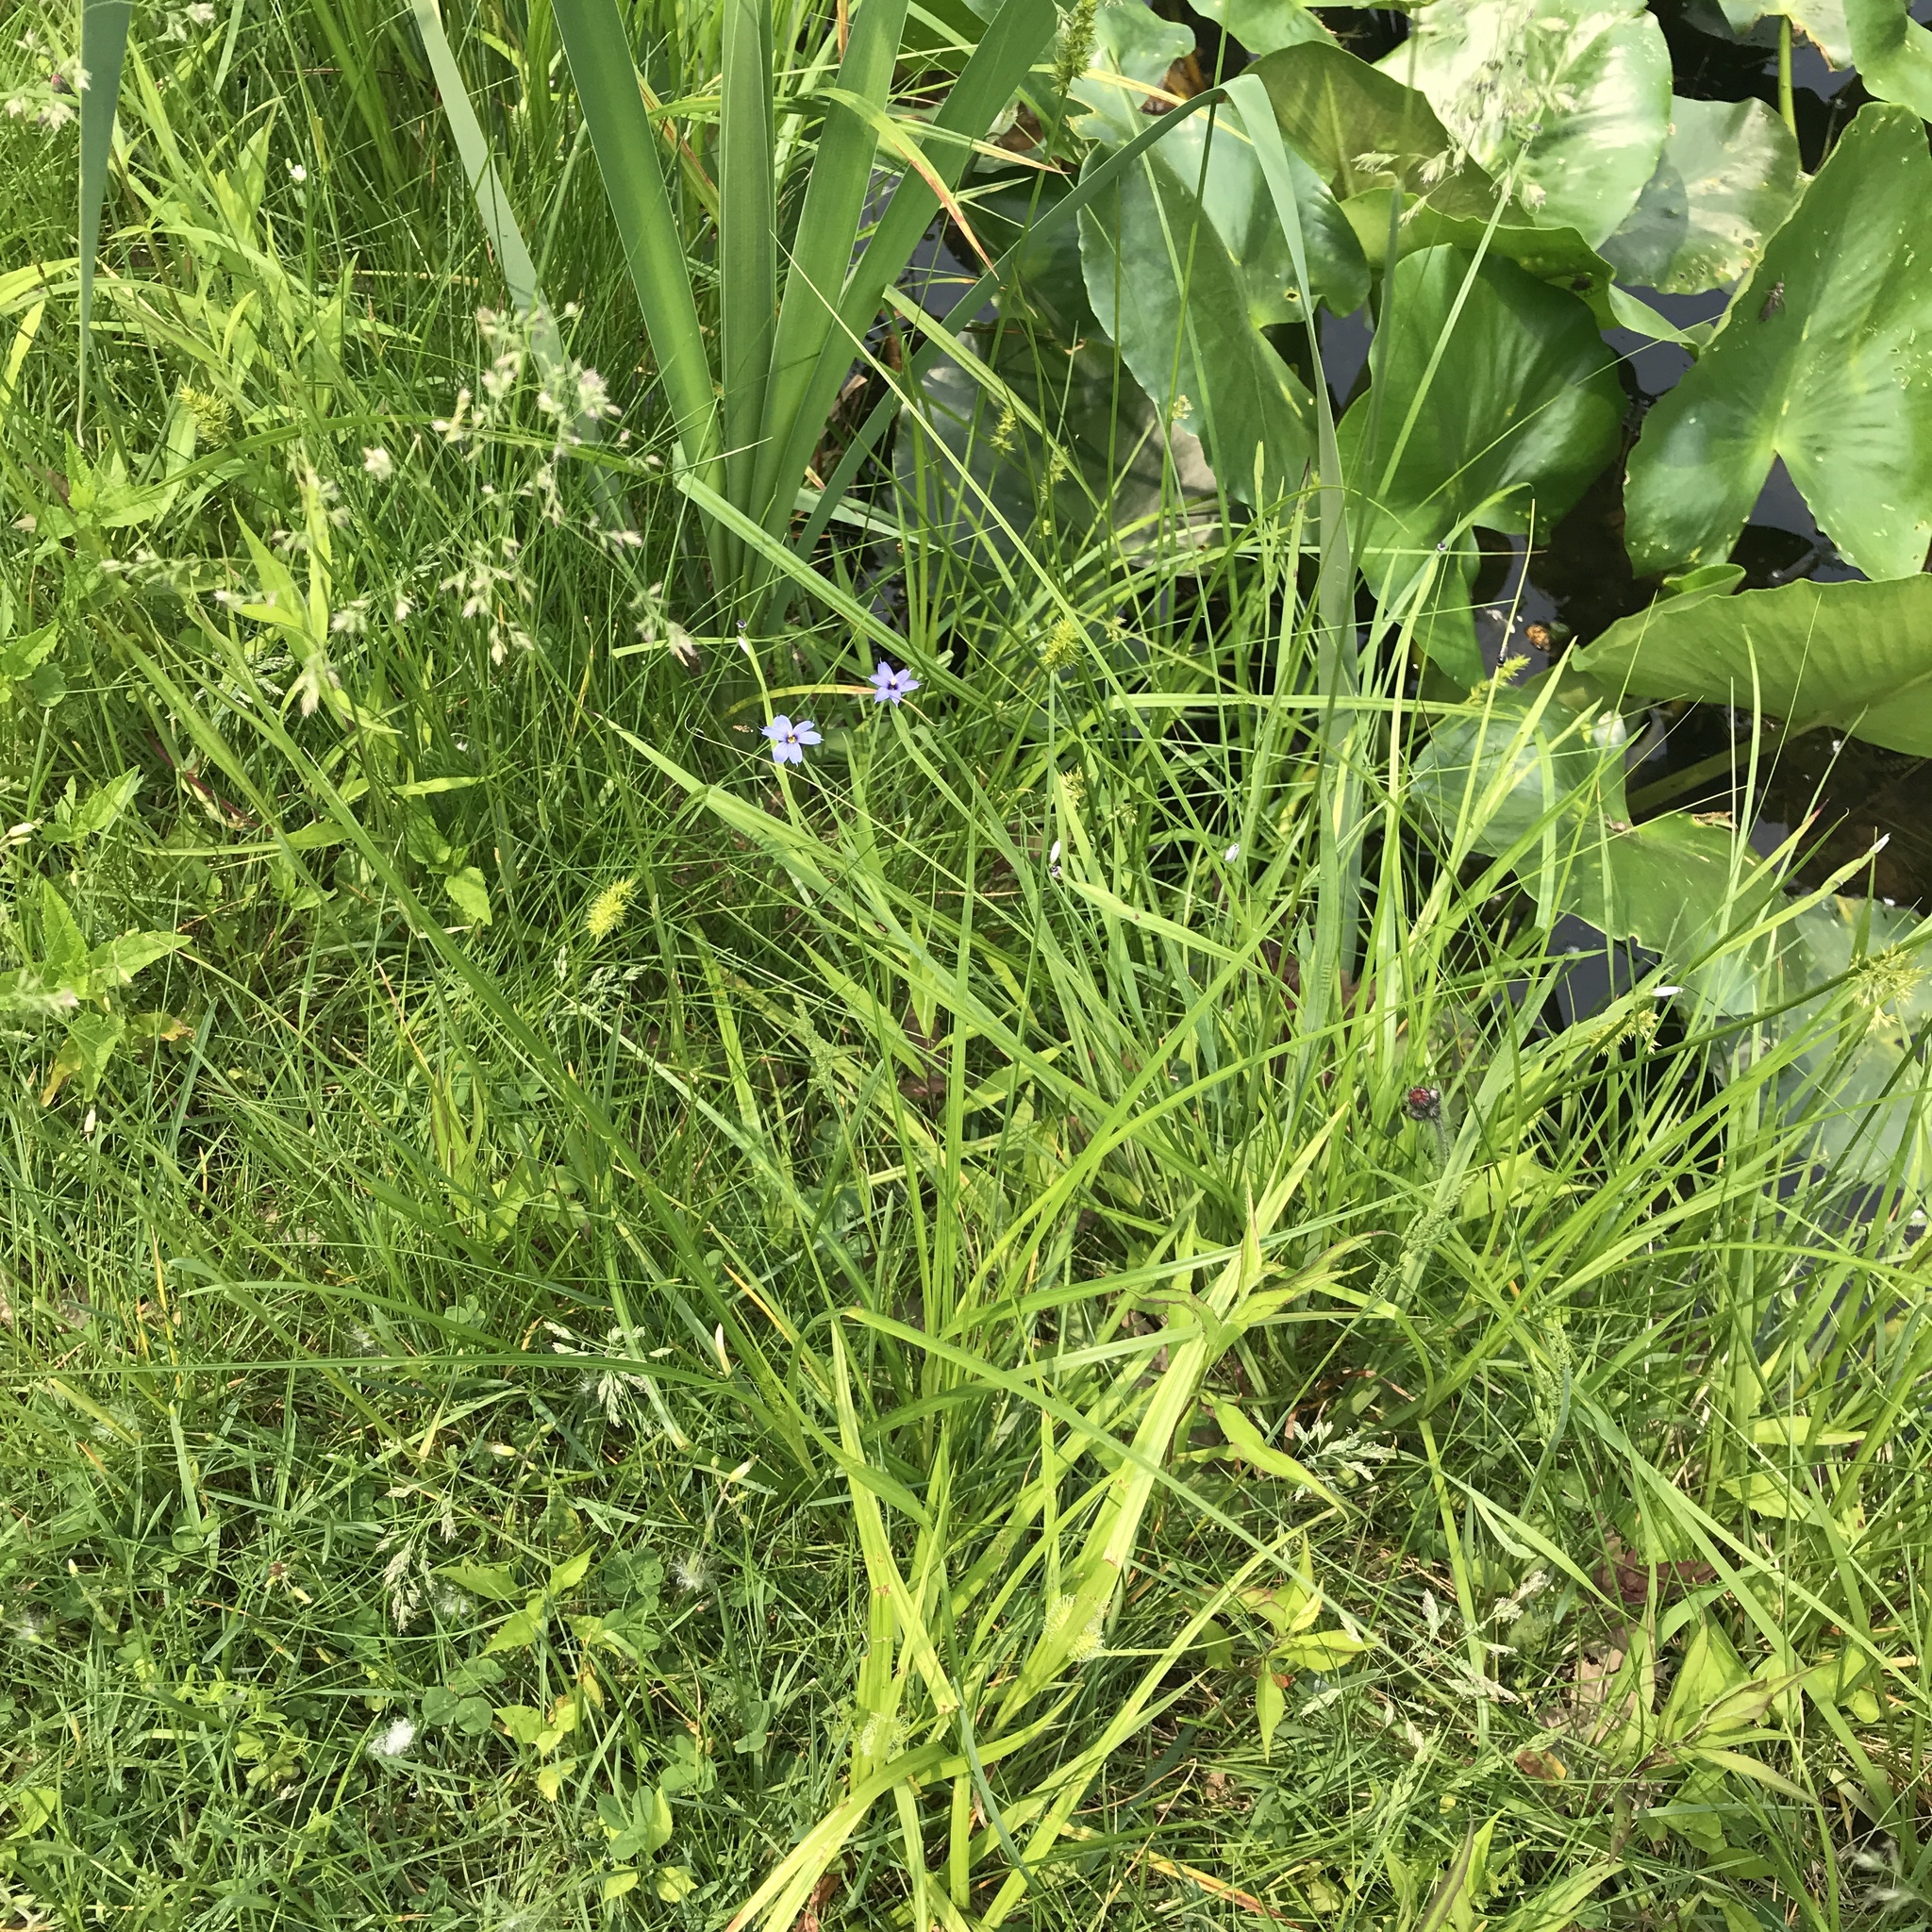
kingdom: Plantae
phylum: Tracheophyta
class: Liliopsida
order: Asparagales
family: Iridaceae
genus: Sisyrinchium
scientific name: Sisyrinchium angustifolium
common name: Narrow-leaf blue-eyed-grass
